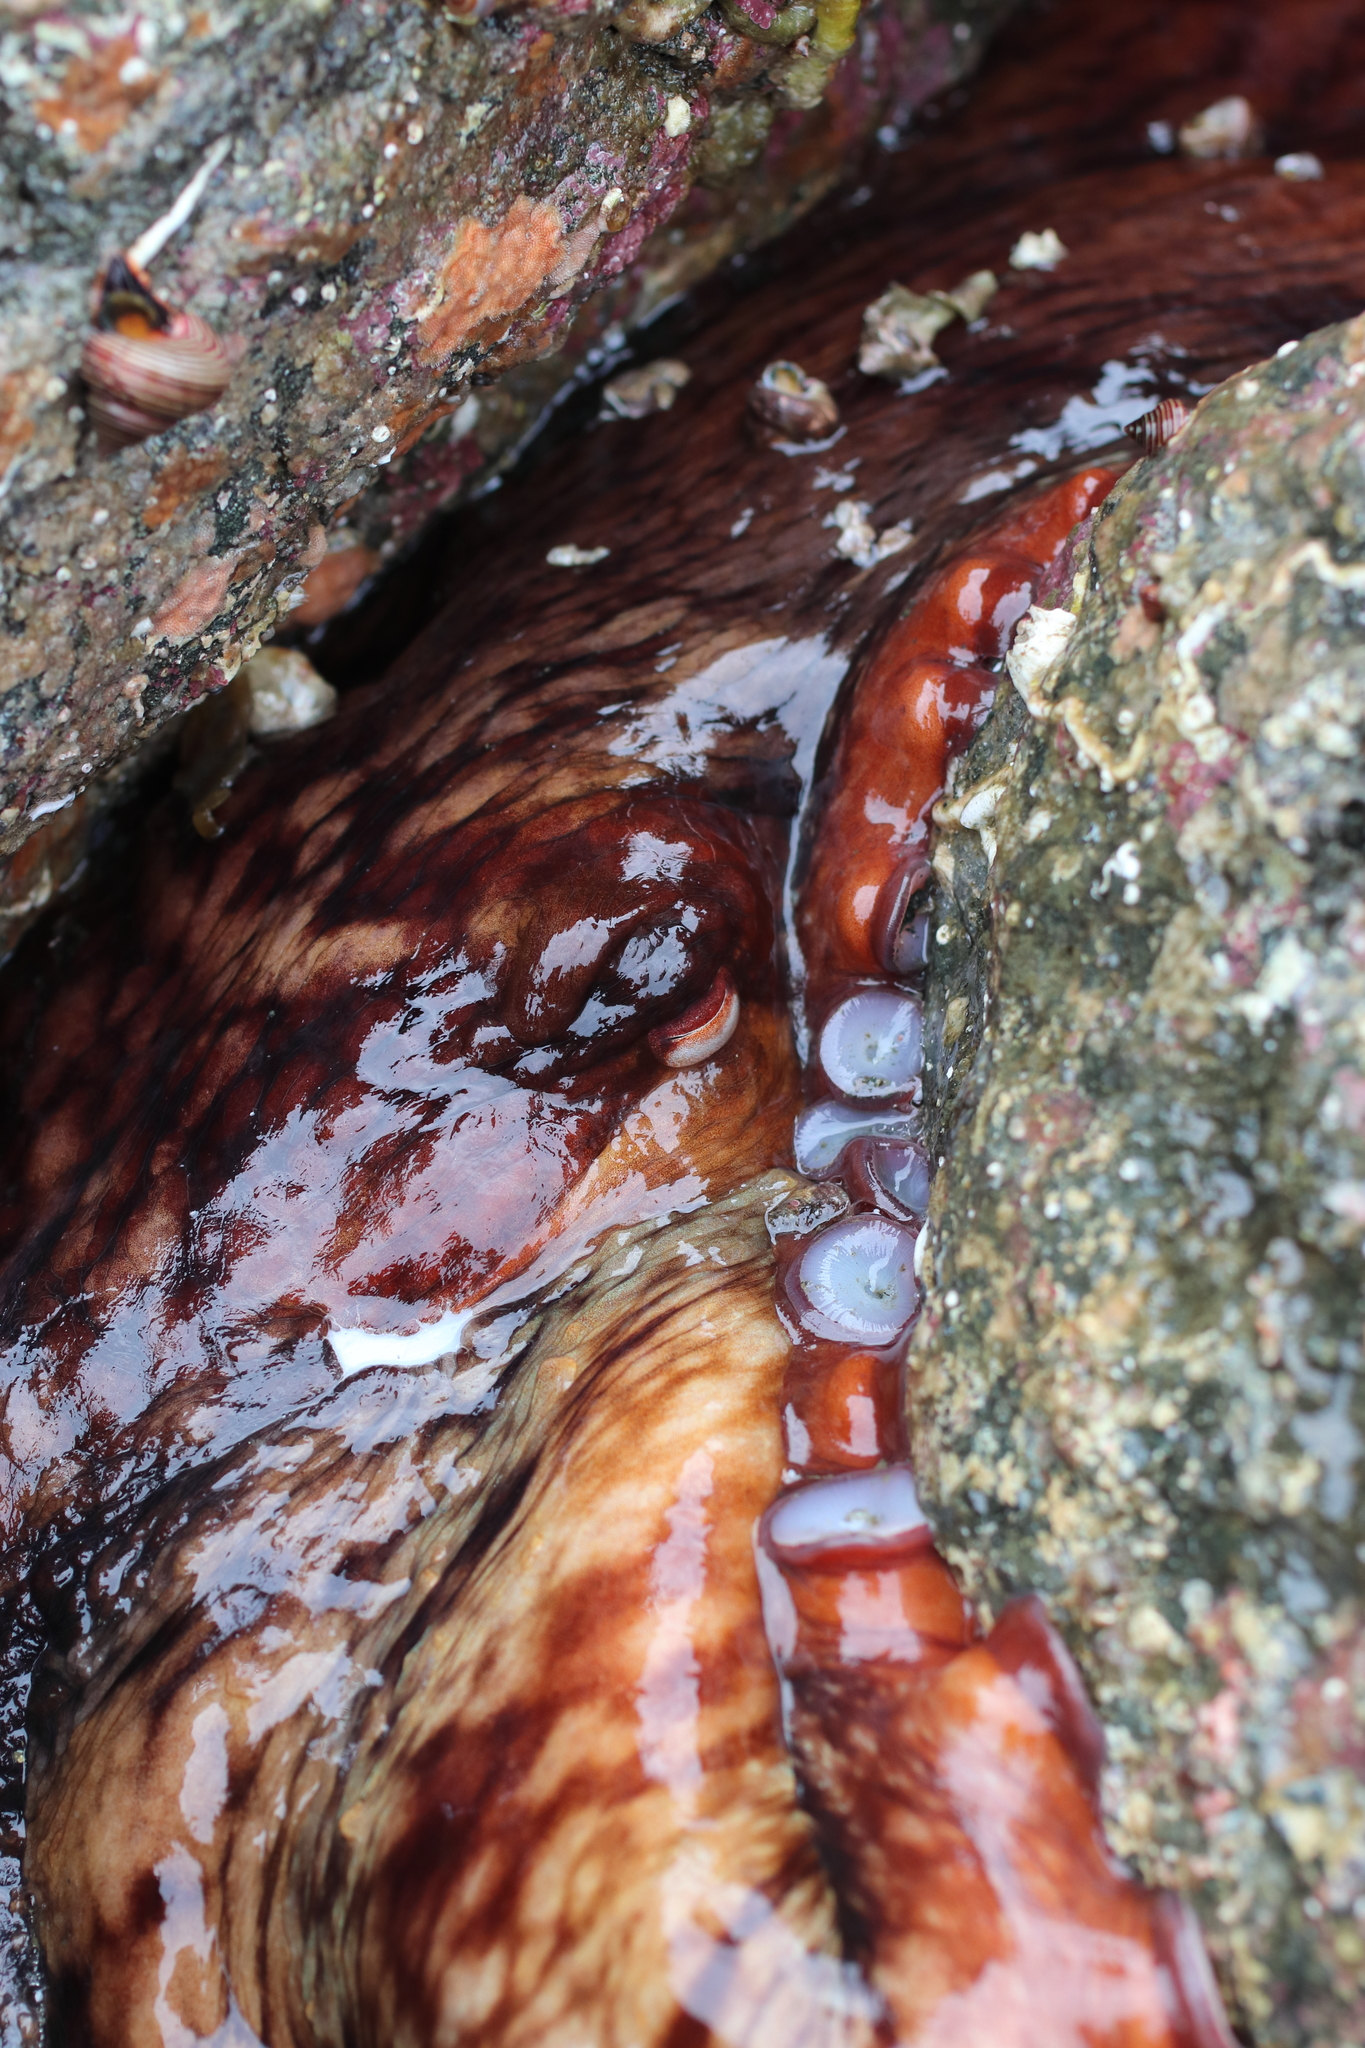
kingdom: Animalia
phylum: Mollusca
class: Cephalopoda
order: Octopoda
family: Enteroctopodidae
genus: Enteroctopus
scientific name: Enteroctopus dofleini
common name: Giant north pacific octopus
